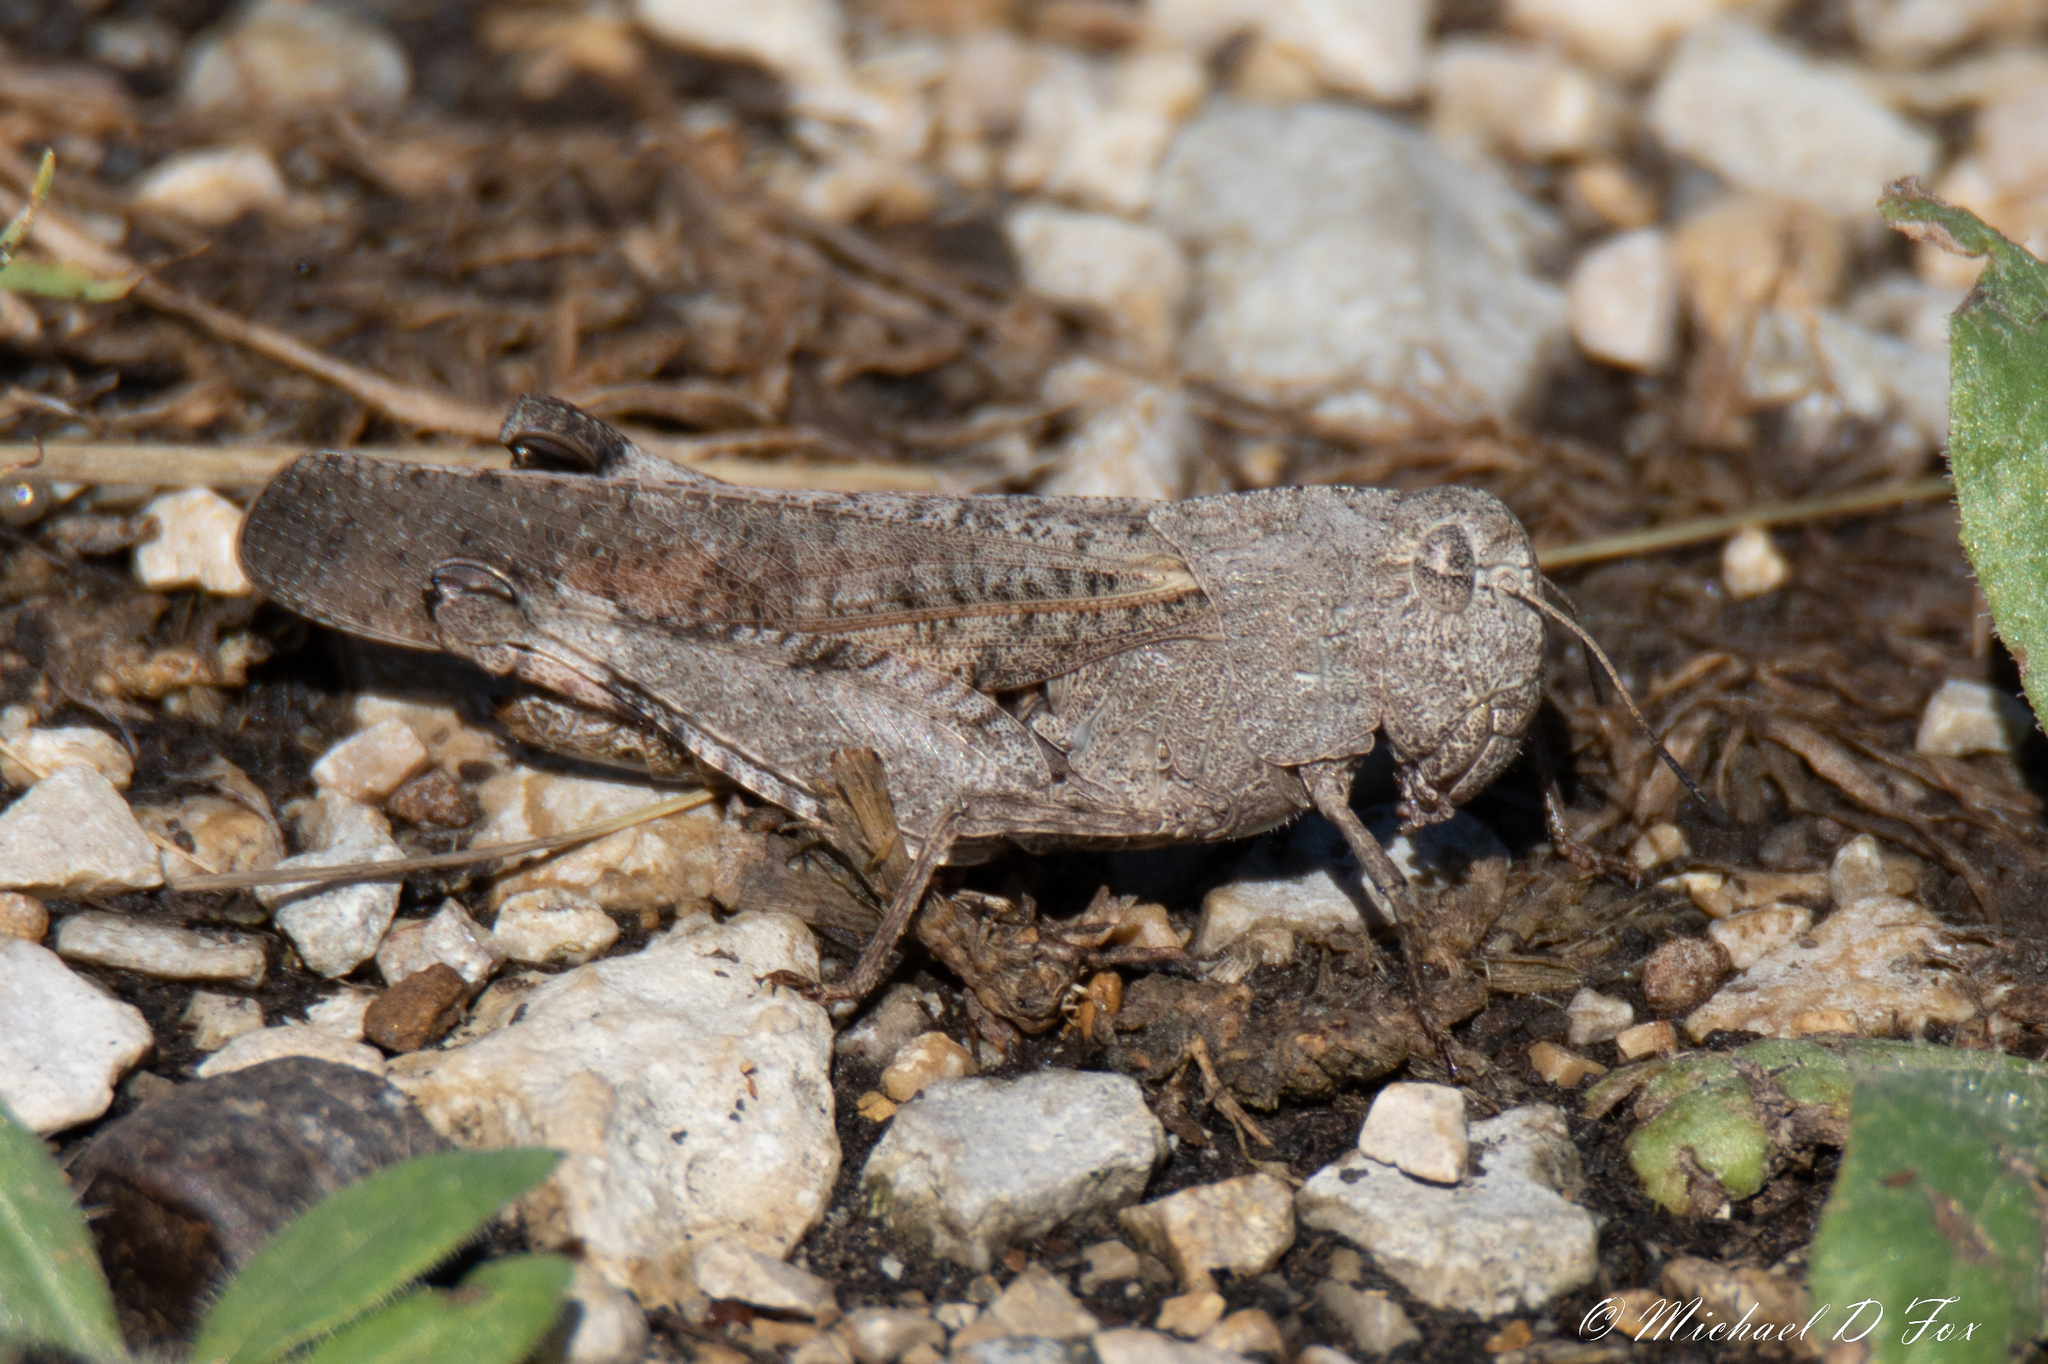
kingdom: Animalia
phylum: Arthropoda
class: Insecta
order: Orthoptera
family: Acrididae
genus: Arphia
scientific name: Arphia simplex
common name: Plains yellow-winged grasshopper
